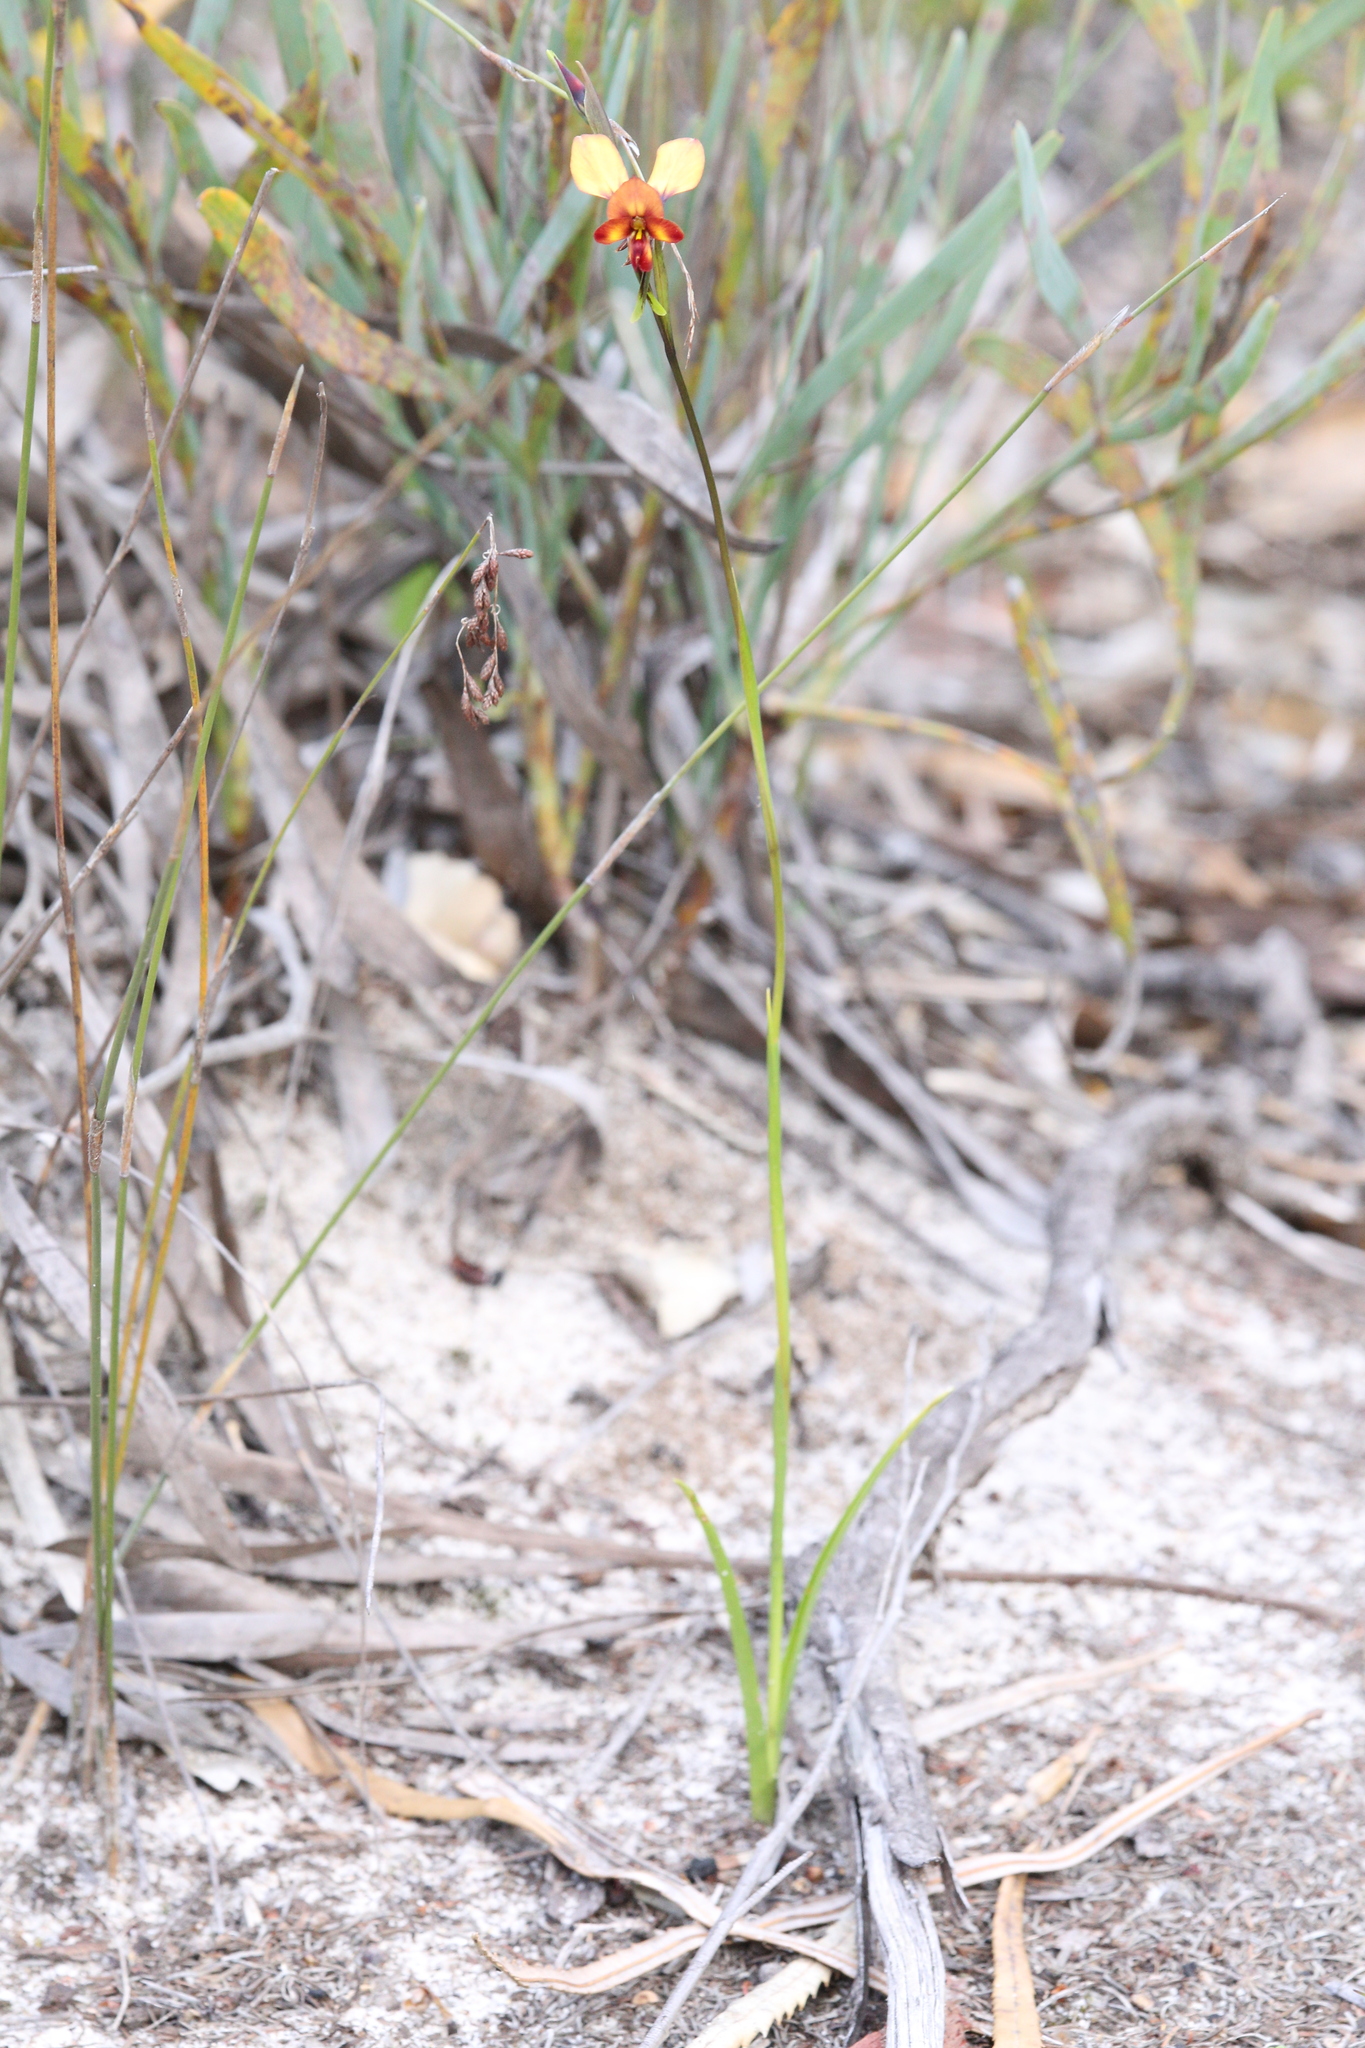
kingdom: Plantae
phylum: Tracheophyta
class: Liliopsida
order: Asparagales
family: Orchidaceae
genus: Diuris
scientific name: Diuris cruenta
